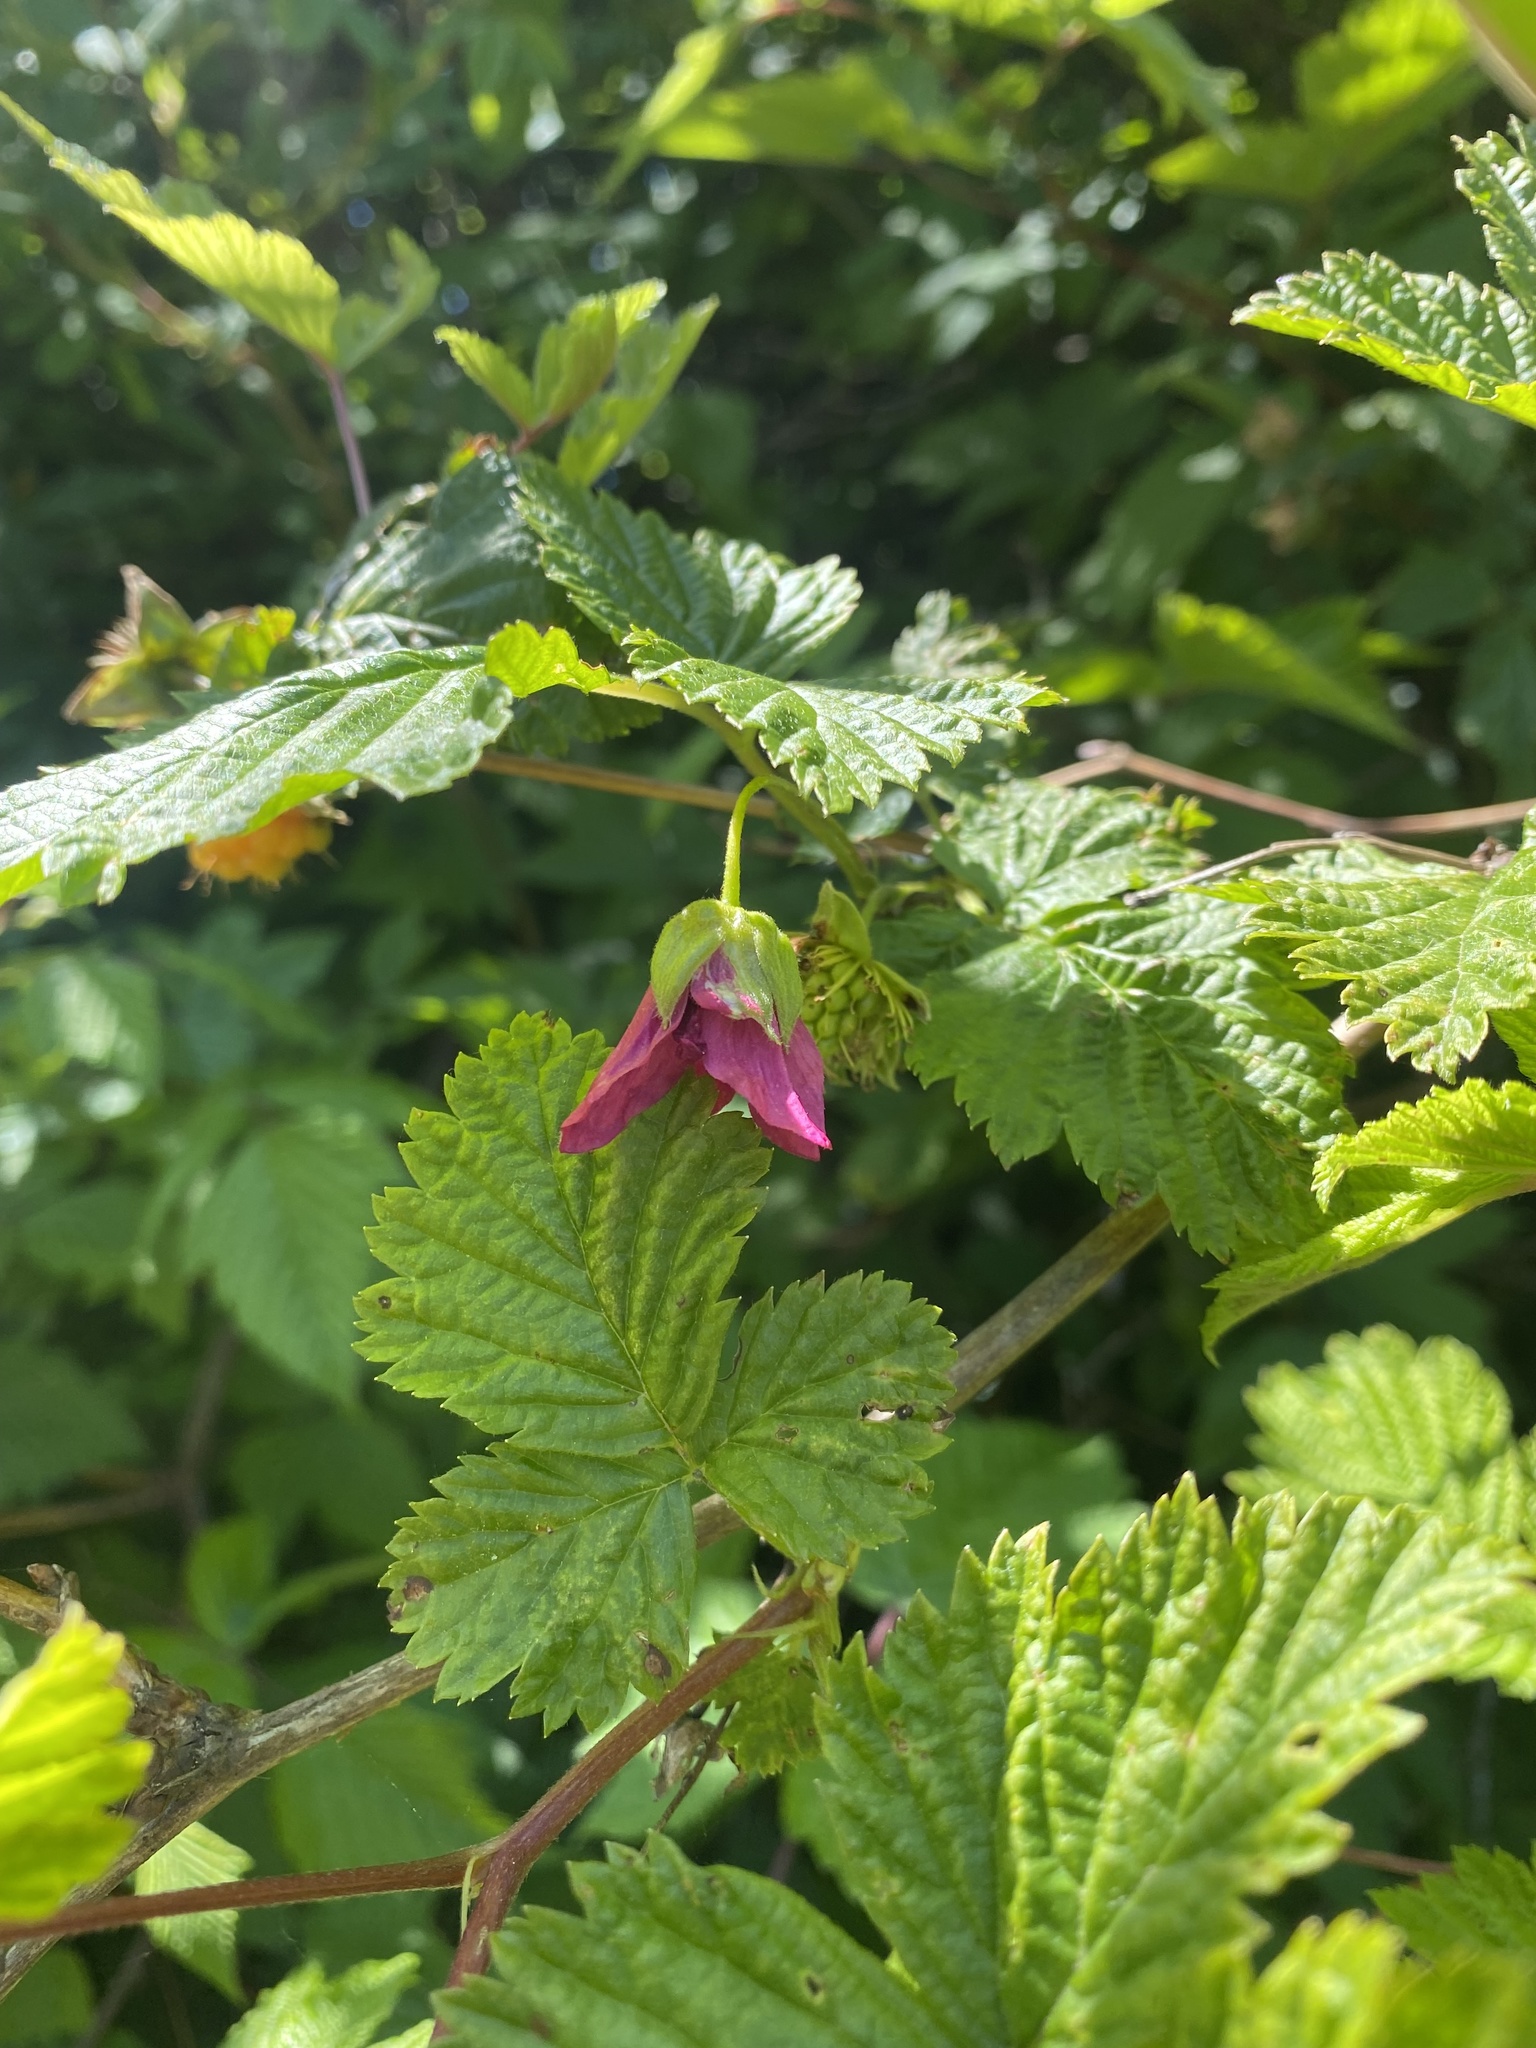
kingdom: Plantae
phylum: Tracheophyta
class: Magnoliopsida
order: Rosales
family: Rosaceae
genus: Rubus
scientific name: Rubus spectabilis
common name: Salmonberry
